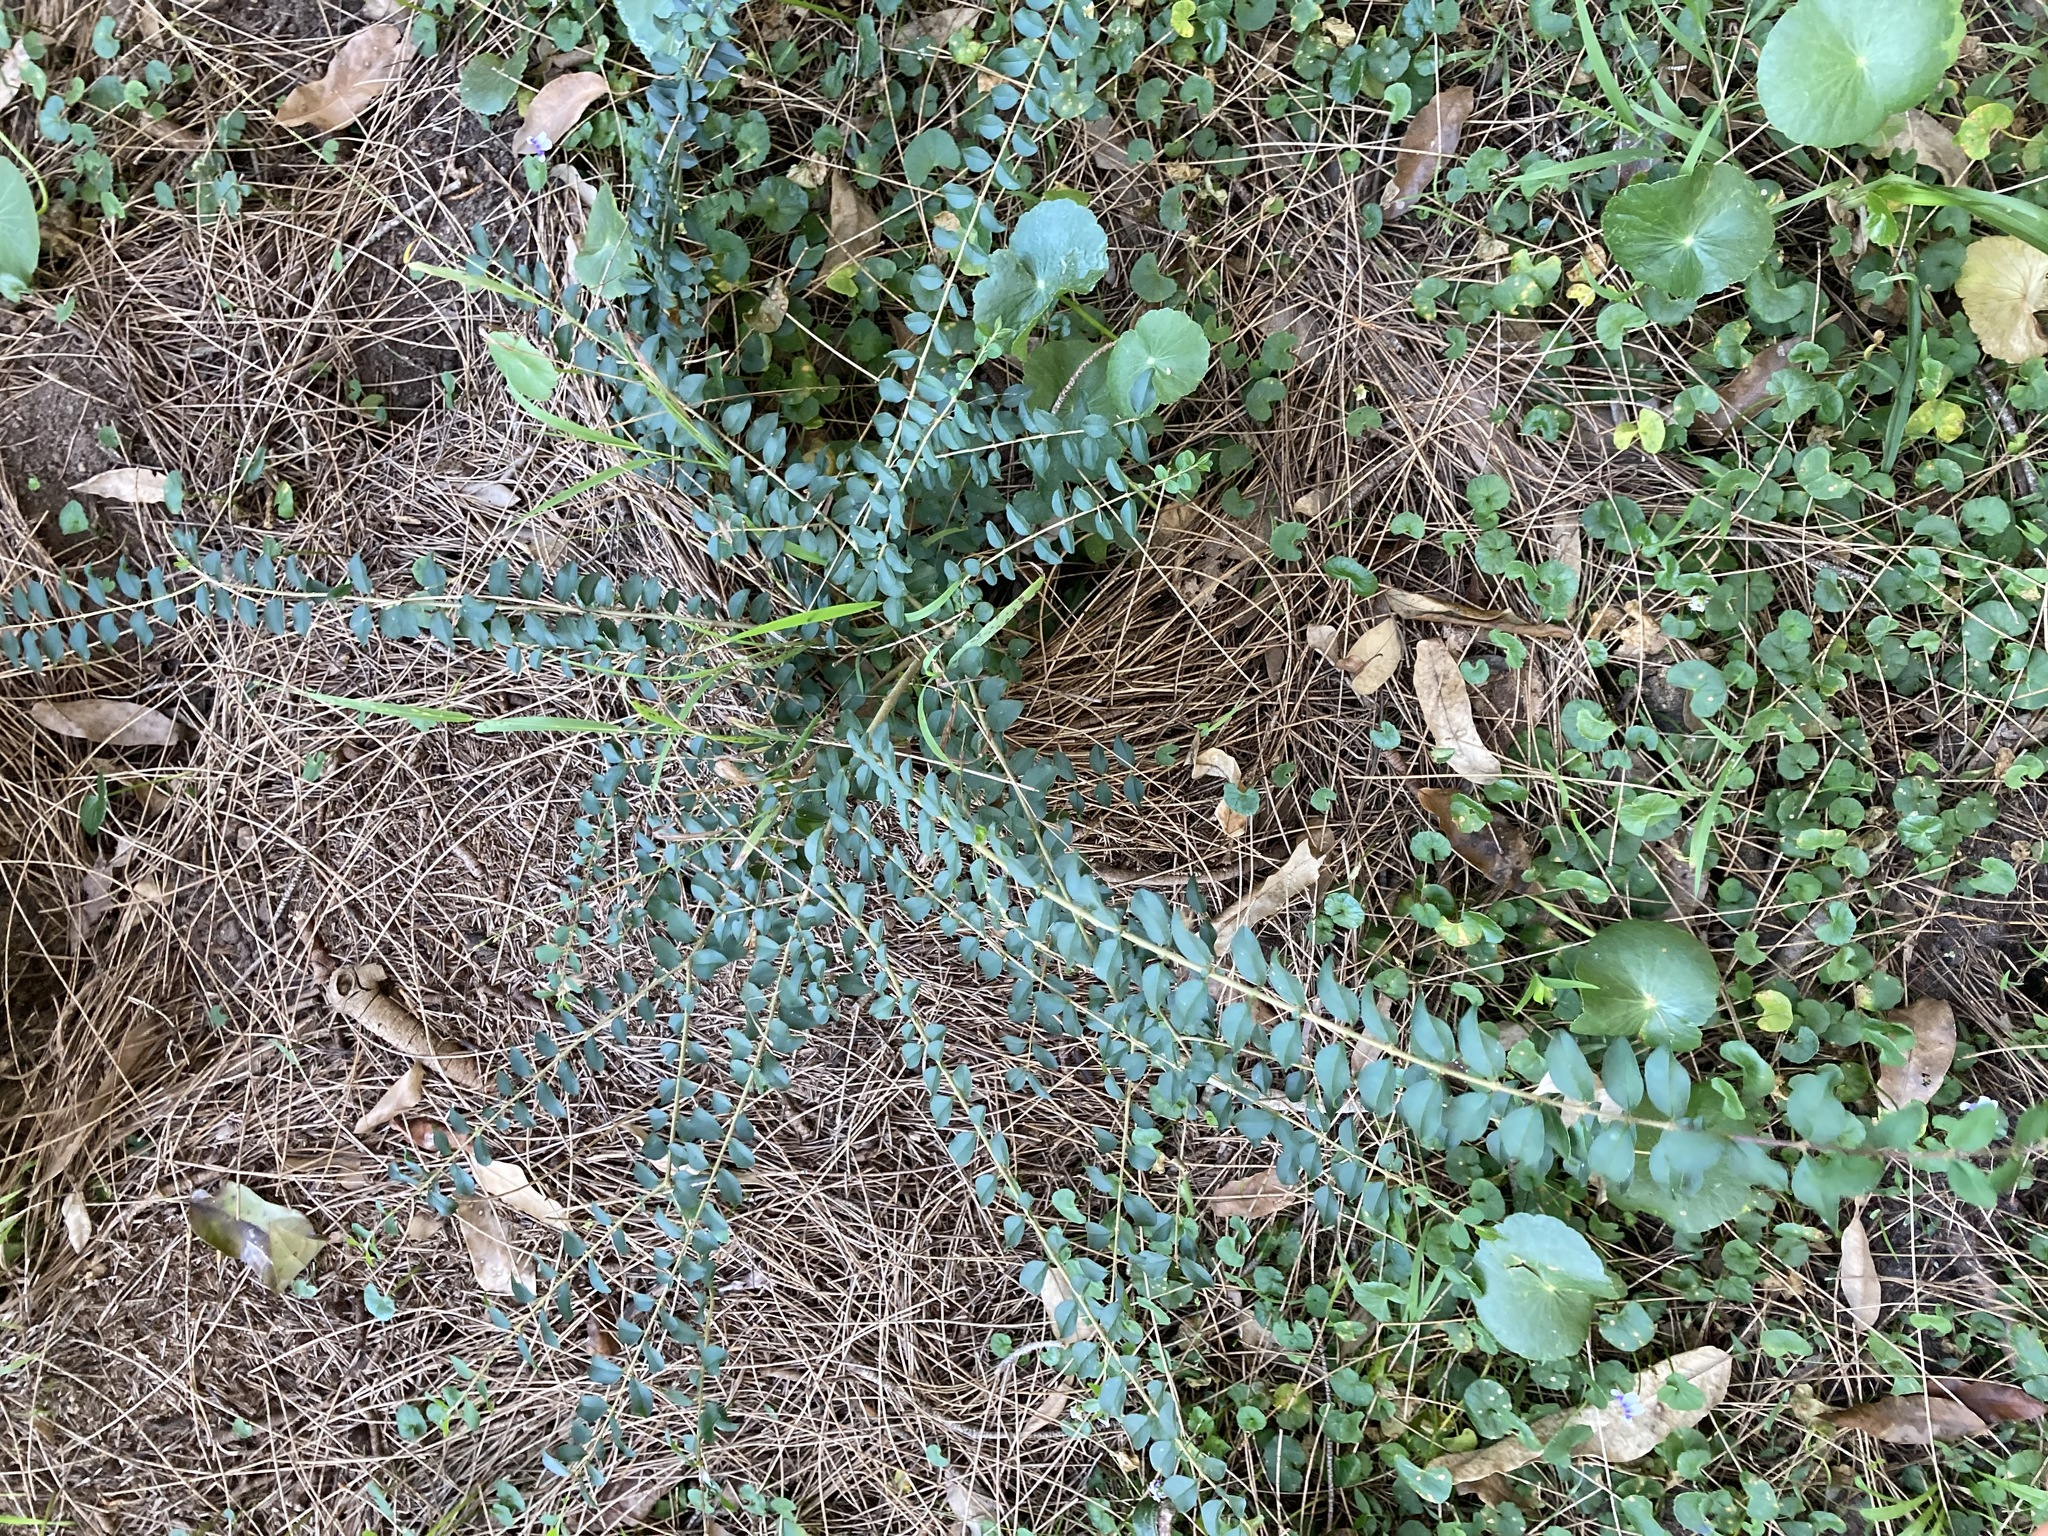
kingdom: Plantae
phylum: Tracheophyta
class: Magnoliopsida
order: Lamiales
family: Oleaceae
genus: Ligustrum
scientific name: Ligustrum sinense
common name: Chinese privet
